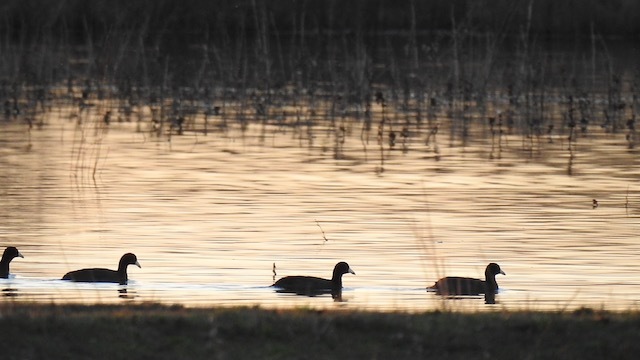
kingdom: Animalia
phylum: Chordata
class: Aves
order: Gruiformes
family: Rallidae
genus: Fulica
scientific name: Fulica americana
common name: American coot
